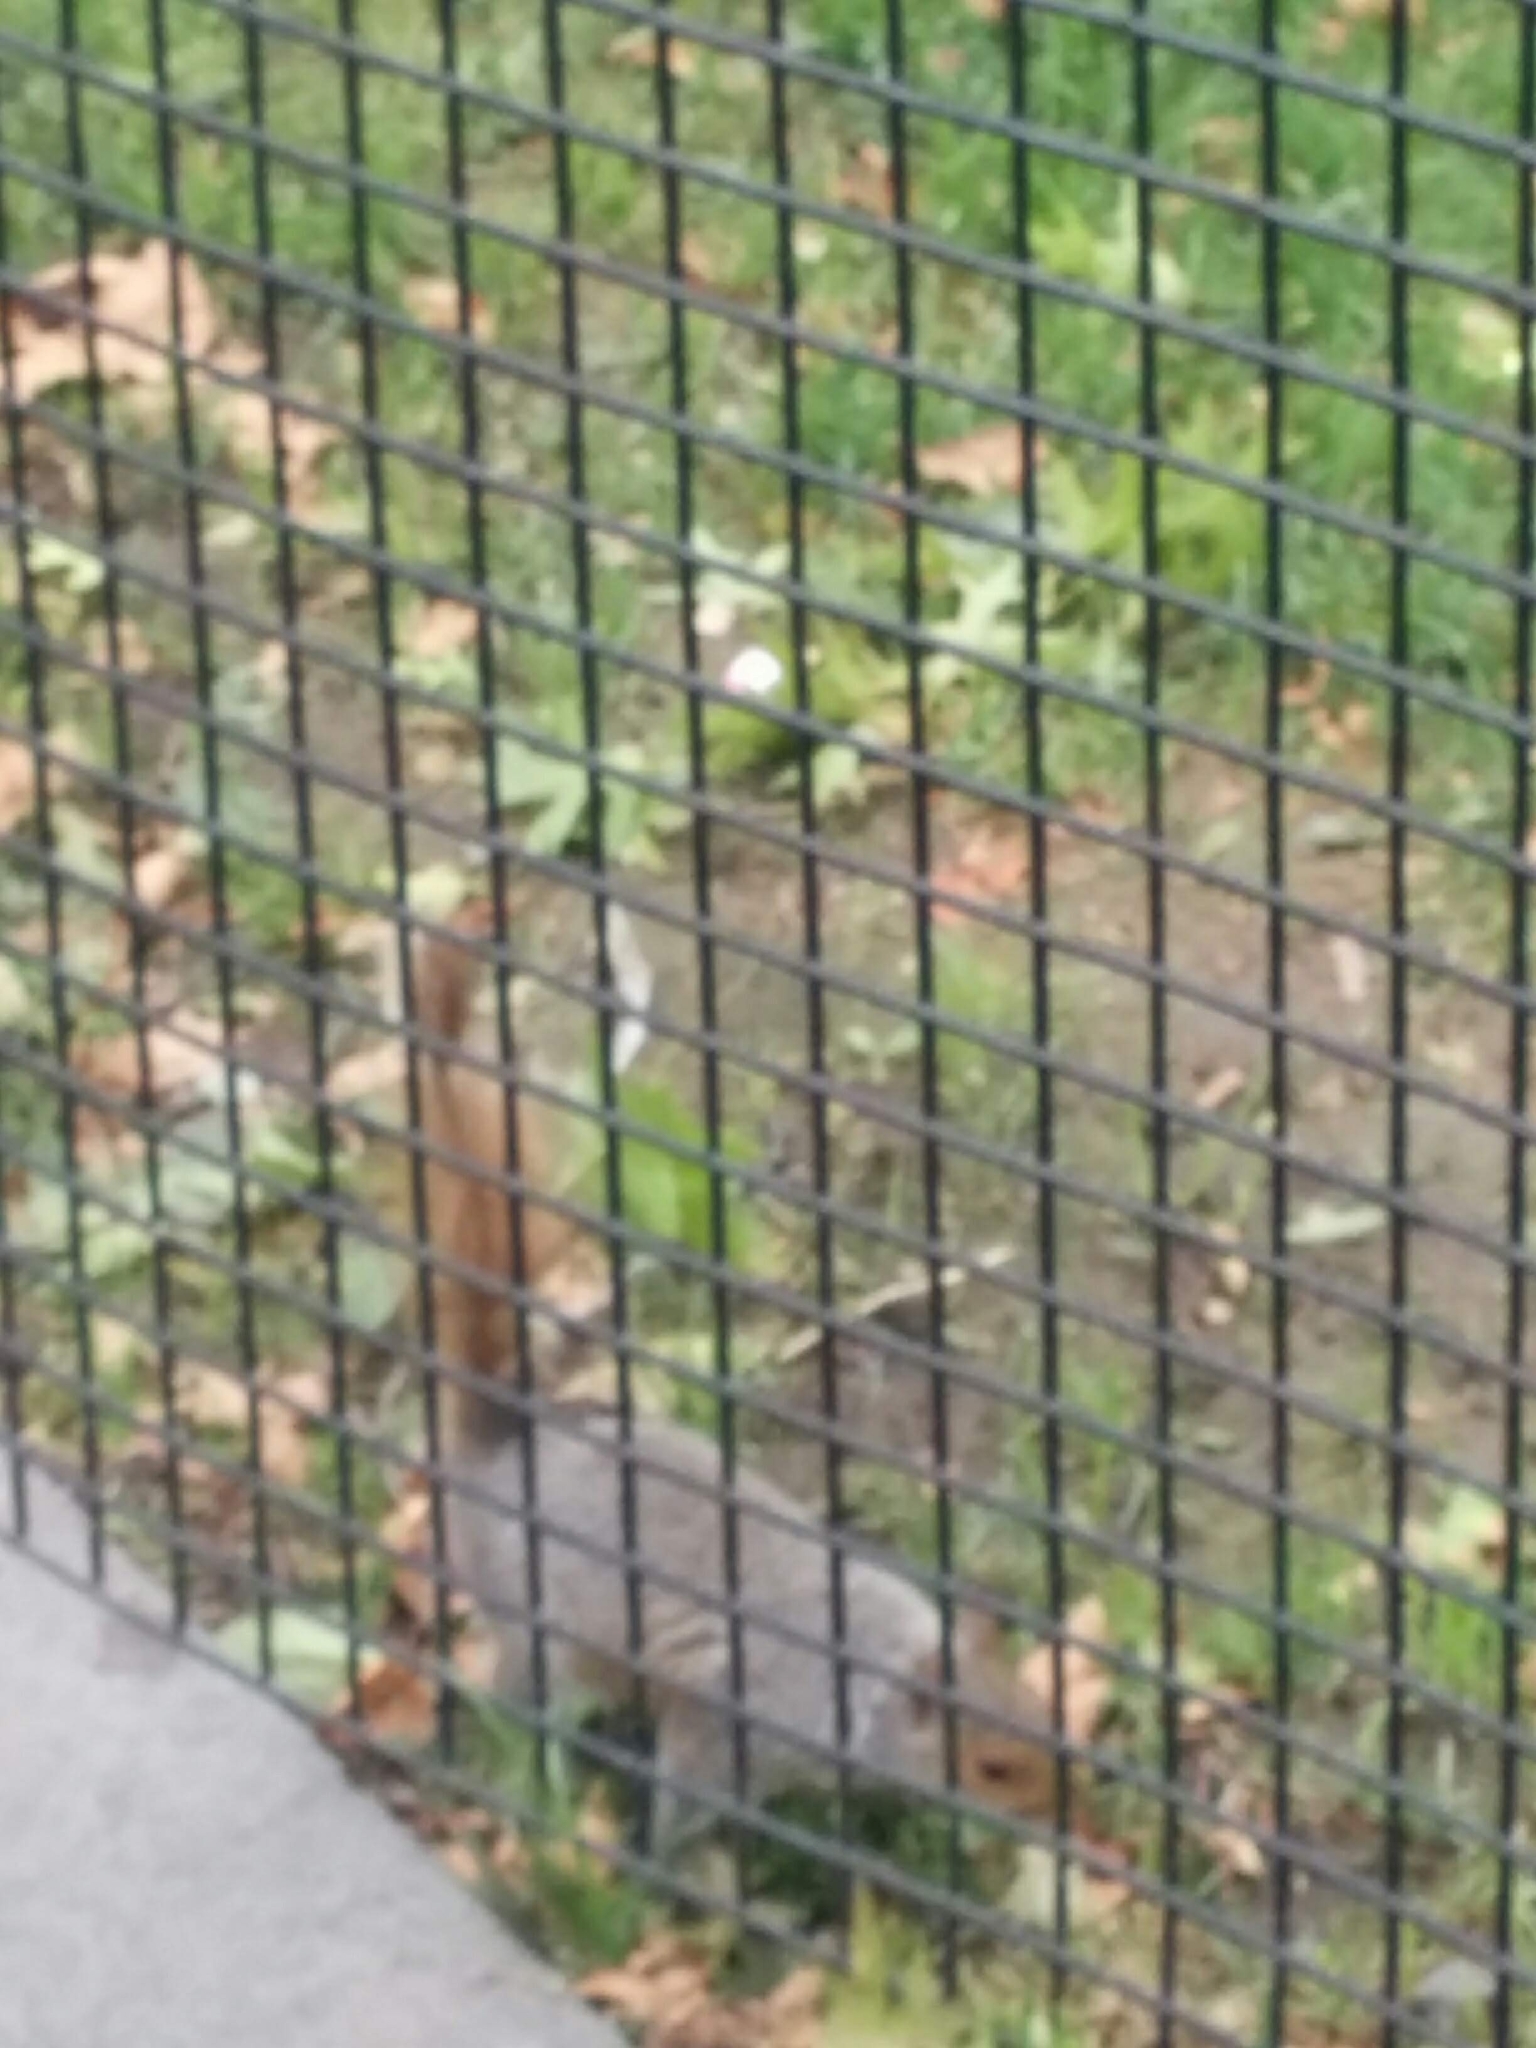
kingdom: Animalia
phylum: Chordata
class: Mammalia
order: Rodentia
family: Sciuridae
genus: Sciurus
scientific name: Sciurus carolinensis
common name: Eastern gray squirrel
